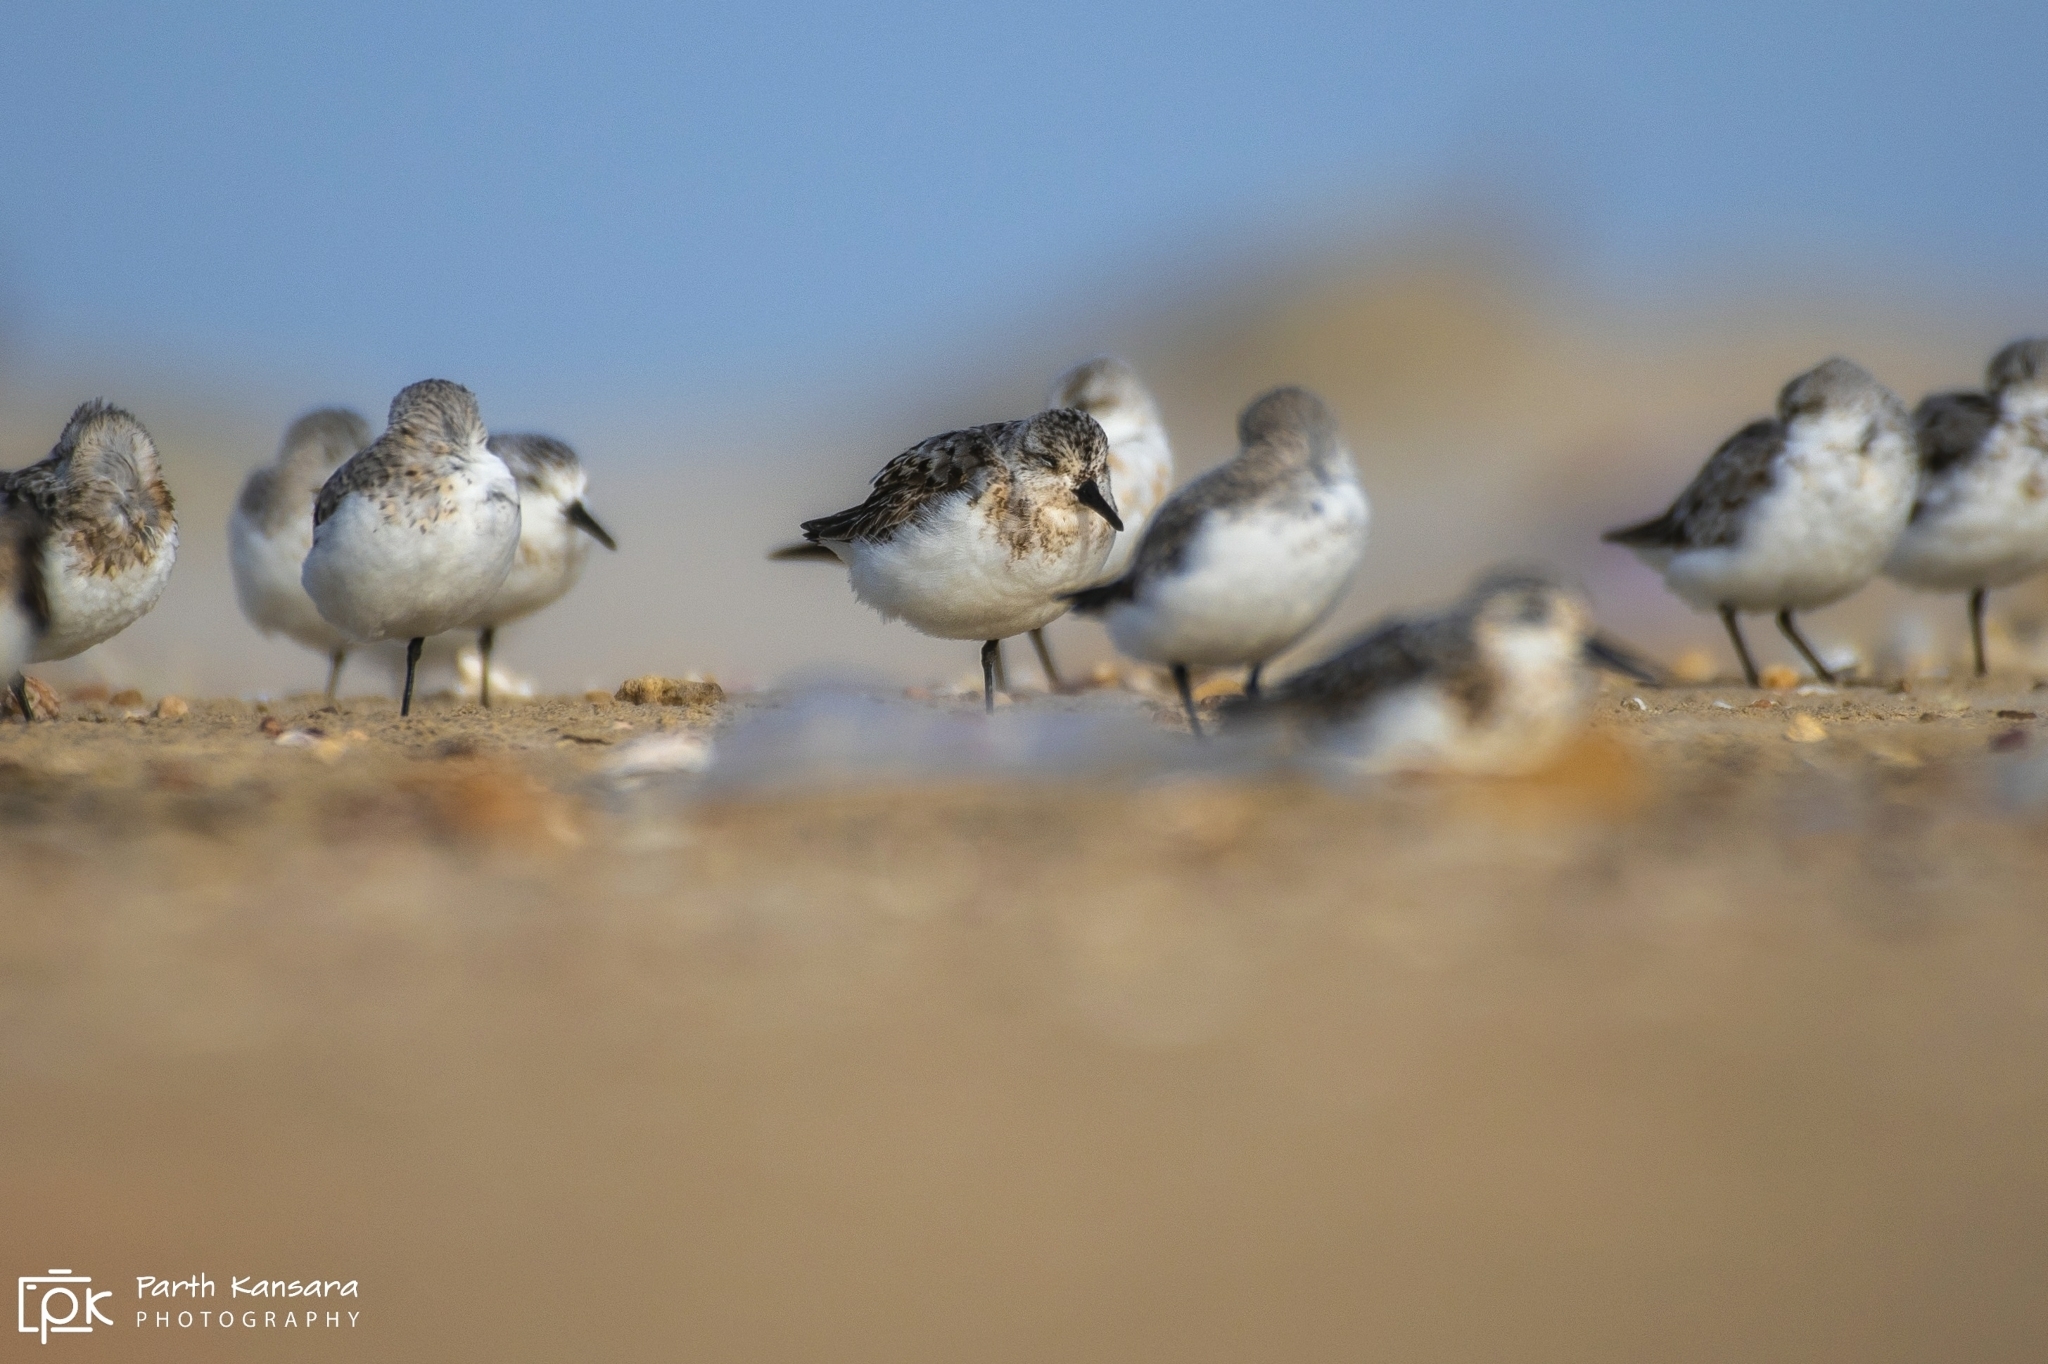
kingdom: Animalia
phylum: Chordata
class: Aves
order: Charadriiformes
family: Scolopacidae
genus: Calidris
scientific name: Calidris alba
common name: Sanderling
